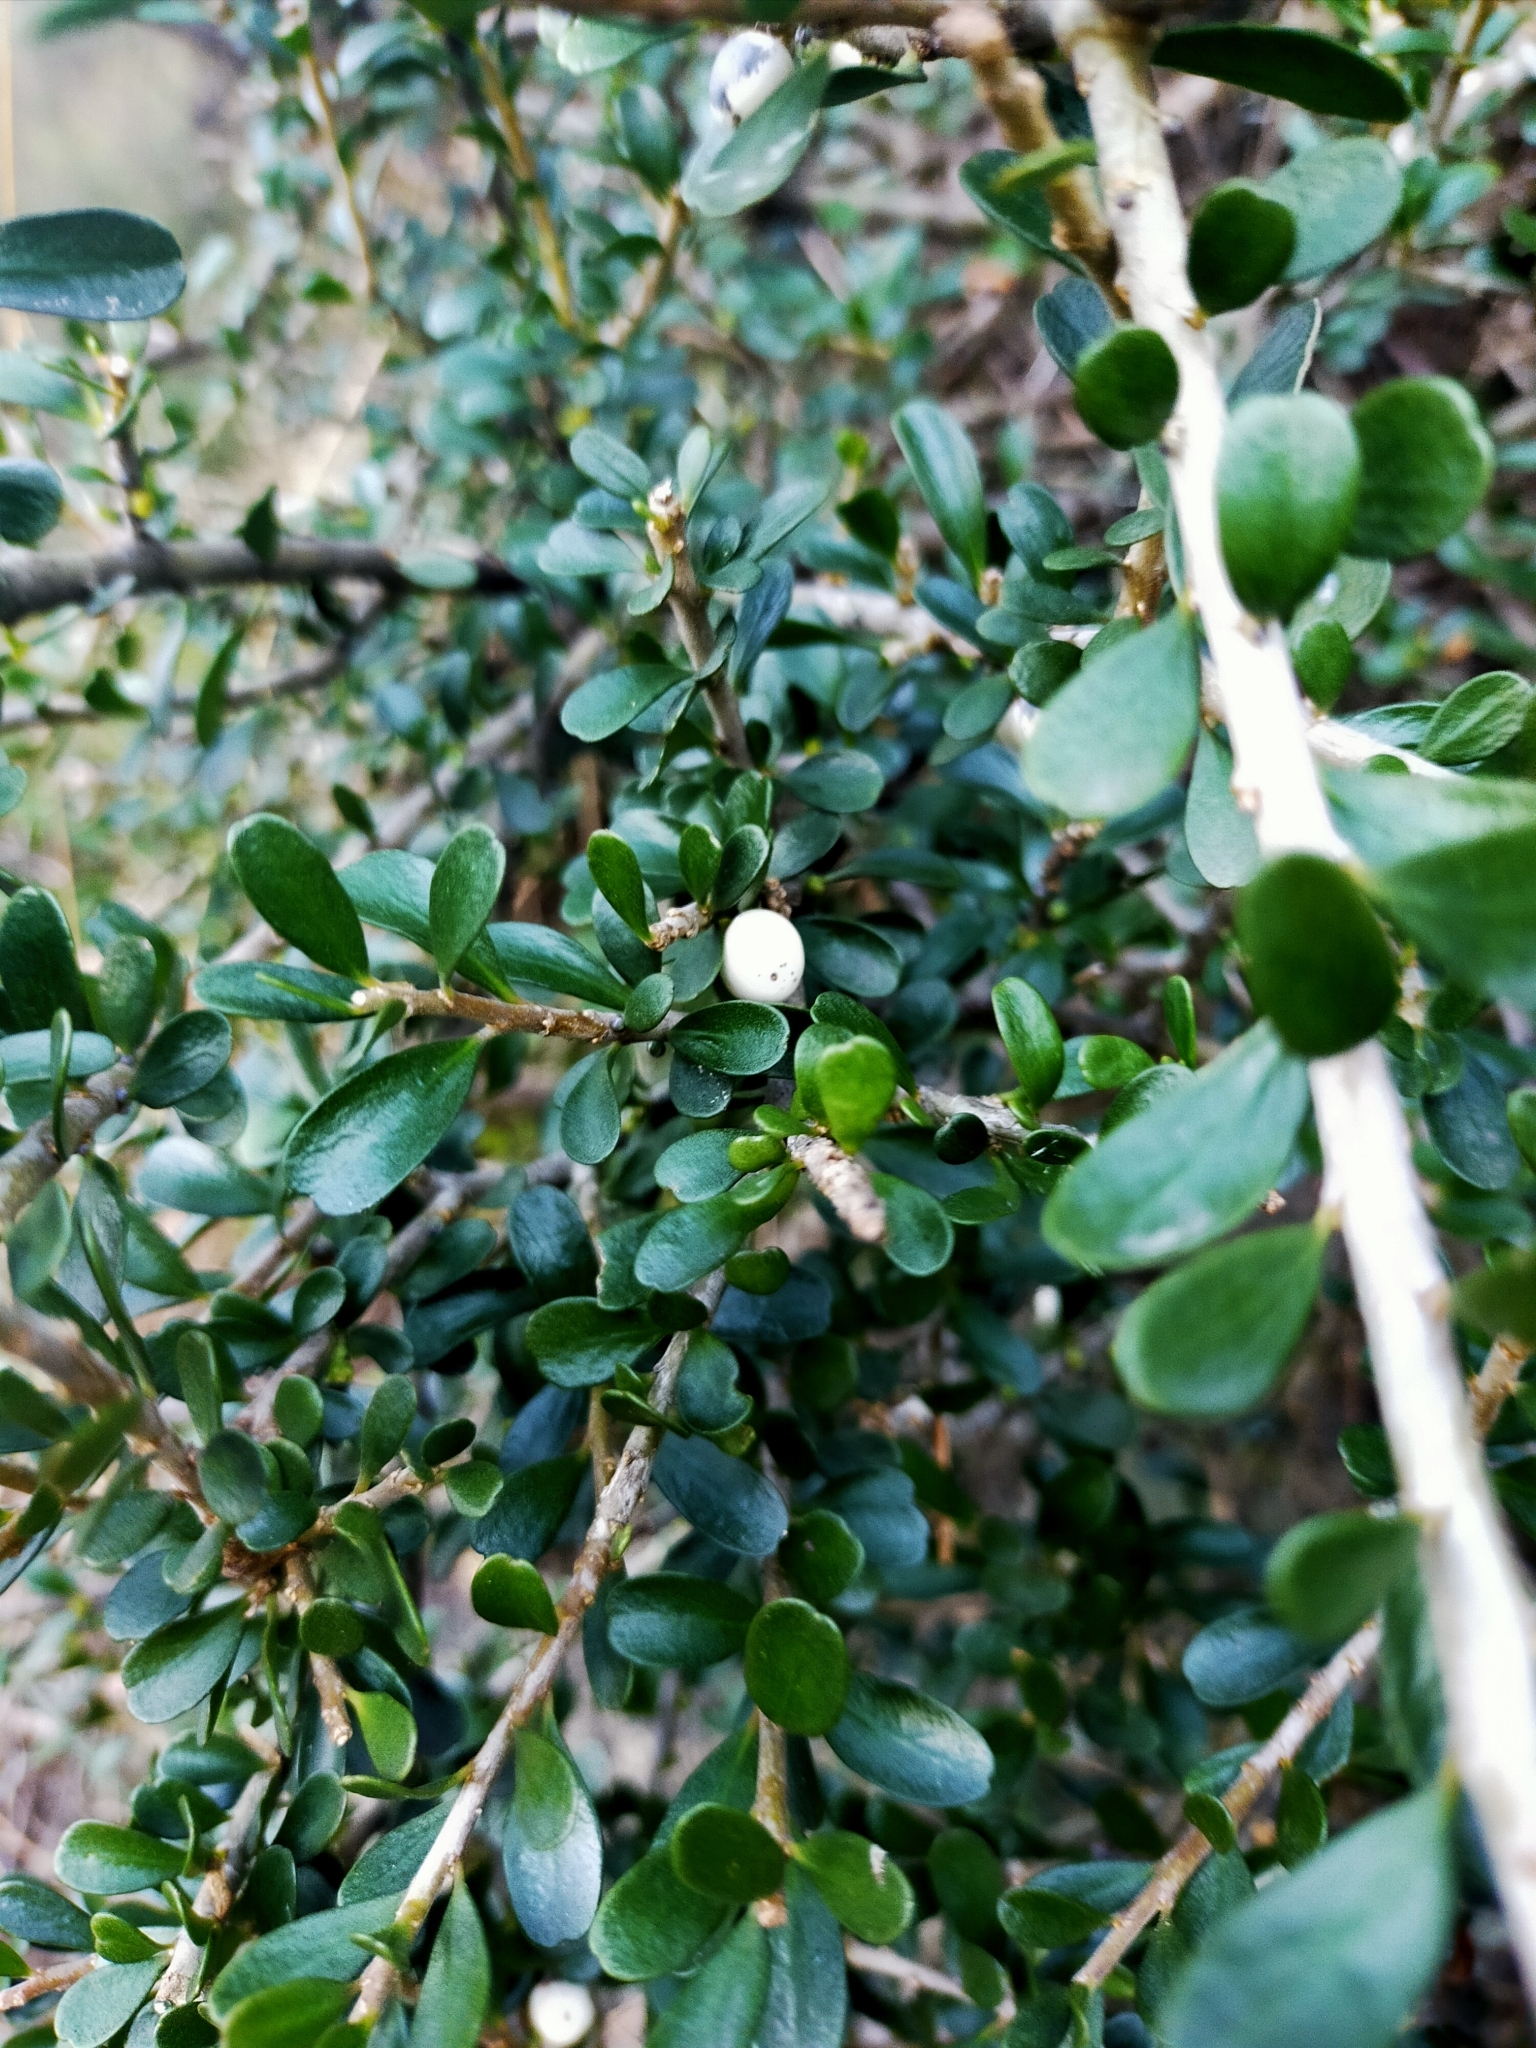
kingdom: Plantae
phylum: Tracheophyta
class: Magnoliopsida
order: Malpighiales
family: Violaceae
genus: Melicytus
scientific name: Melicytus crassifolius
